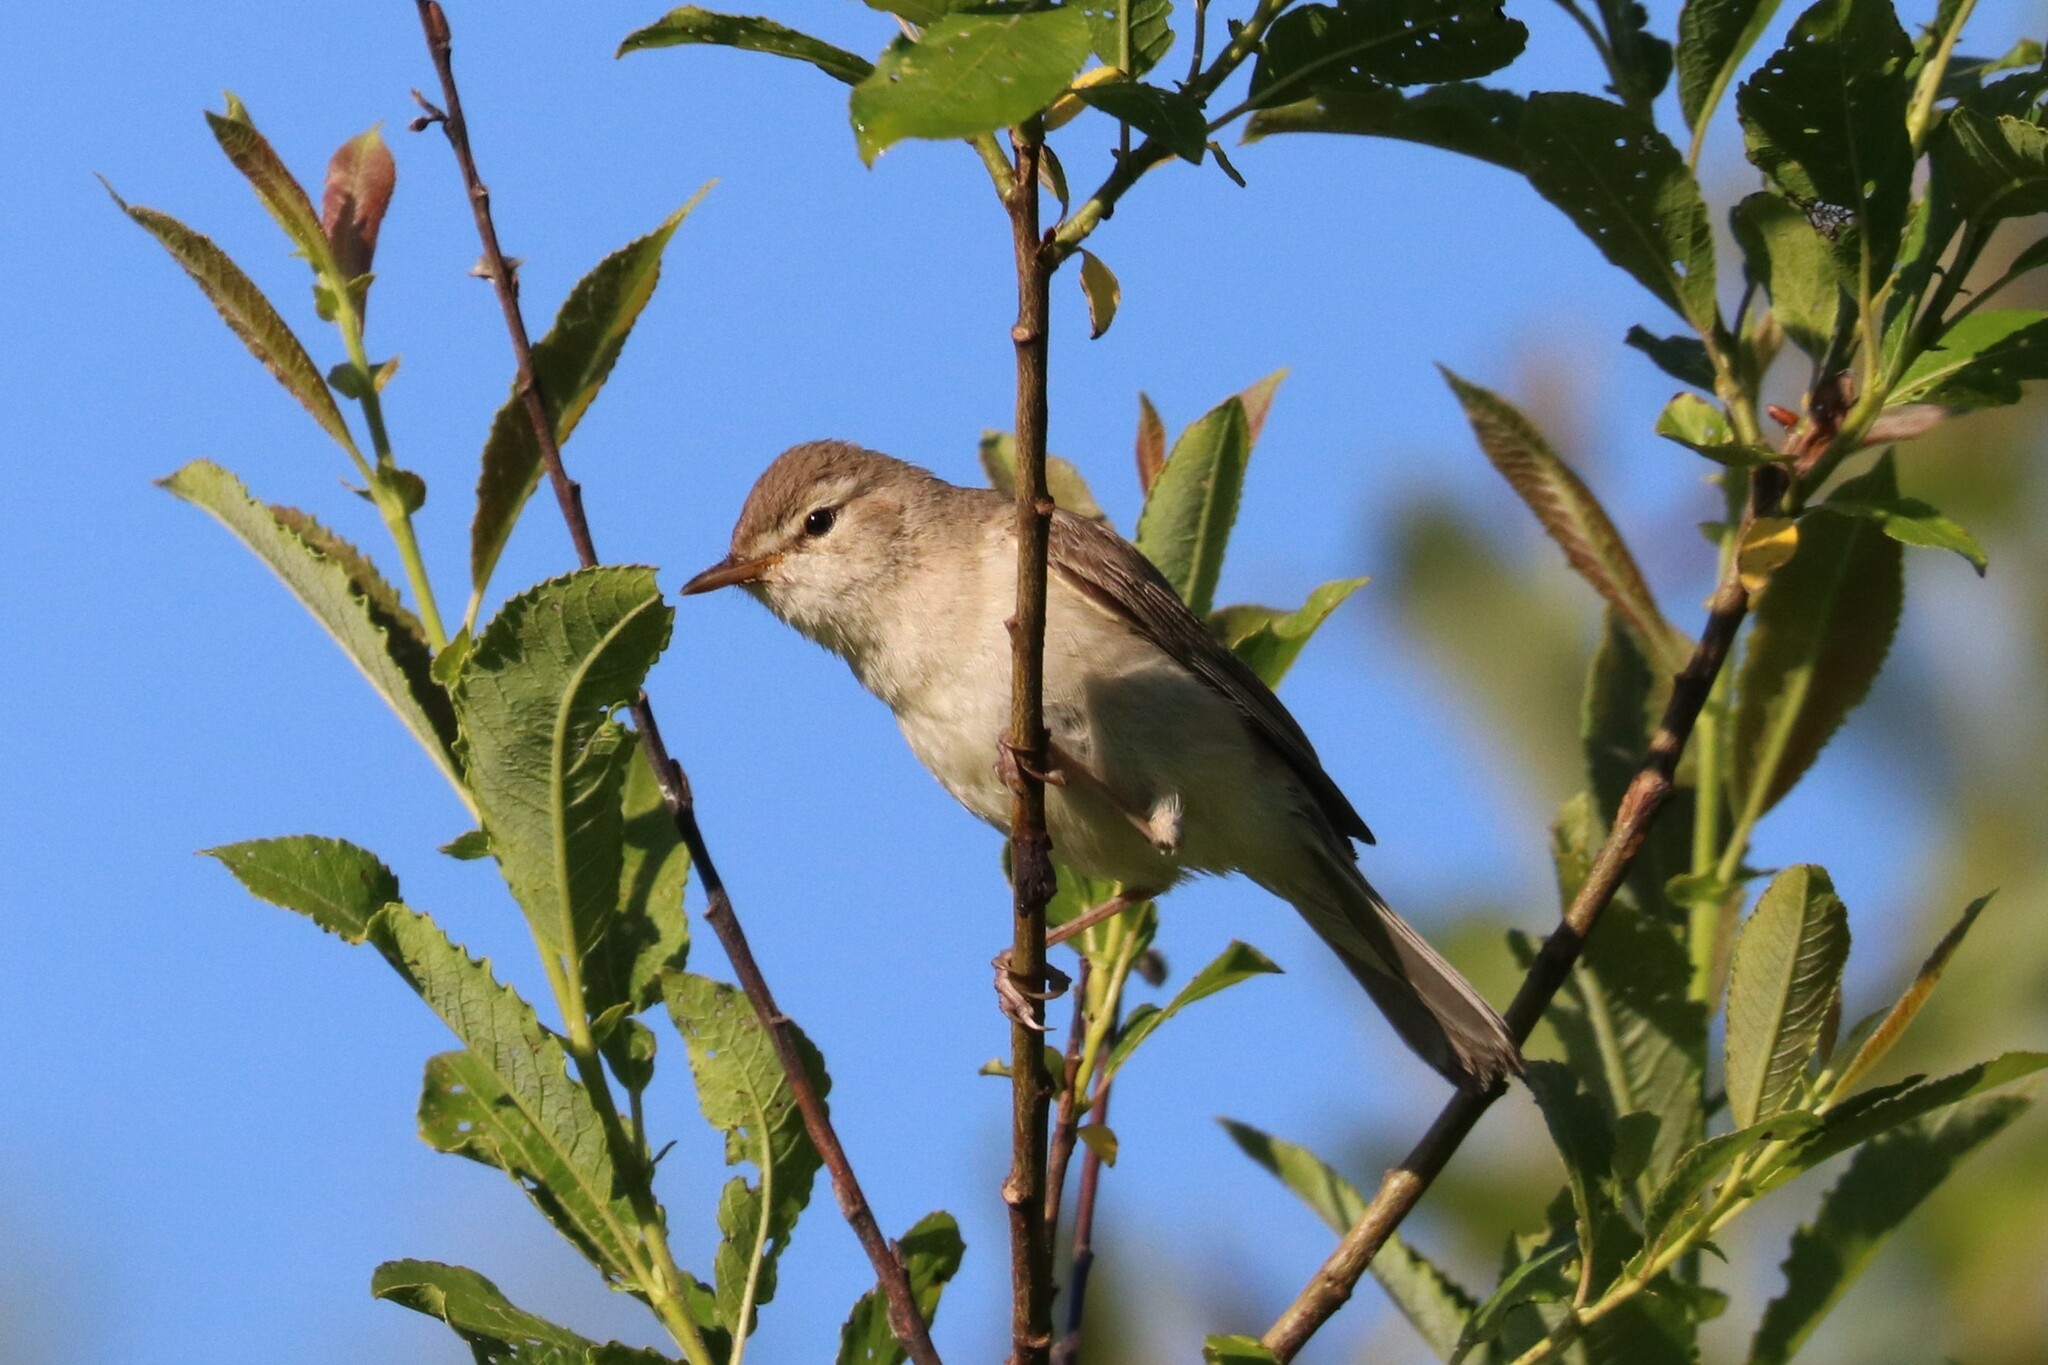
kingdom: Animalia
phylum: Chordata
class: Aves
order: Passeriformes
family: Acrocephalidae
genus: Iduna
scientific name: Iduna caligata
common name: Booted warbler
